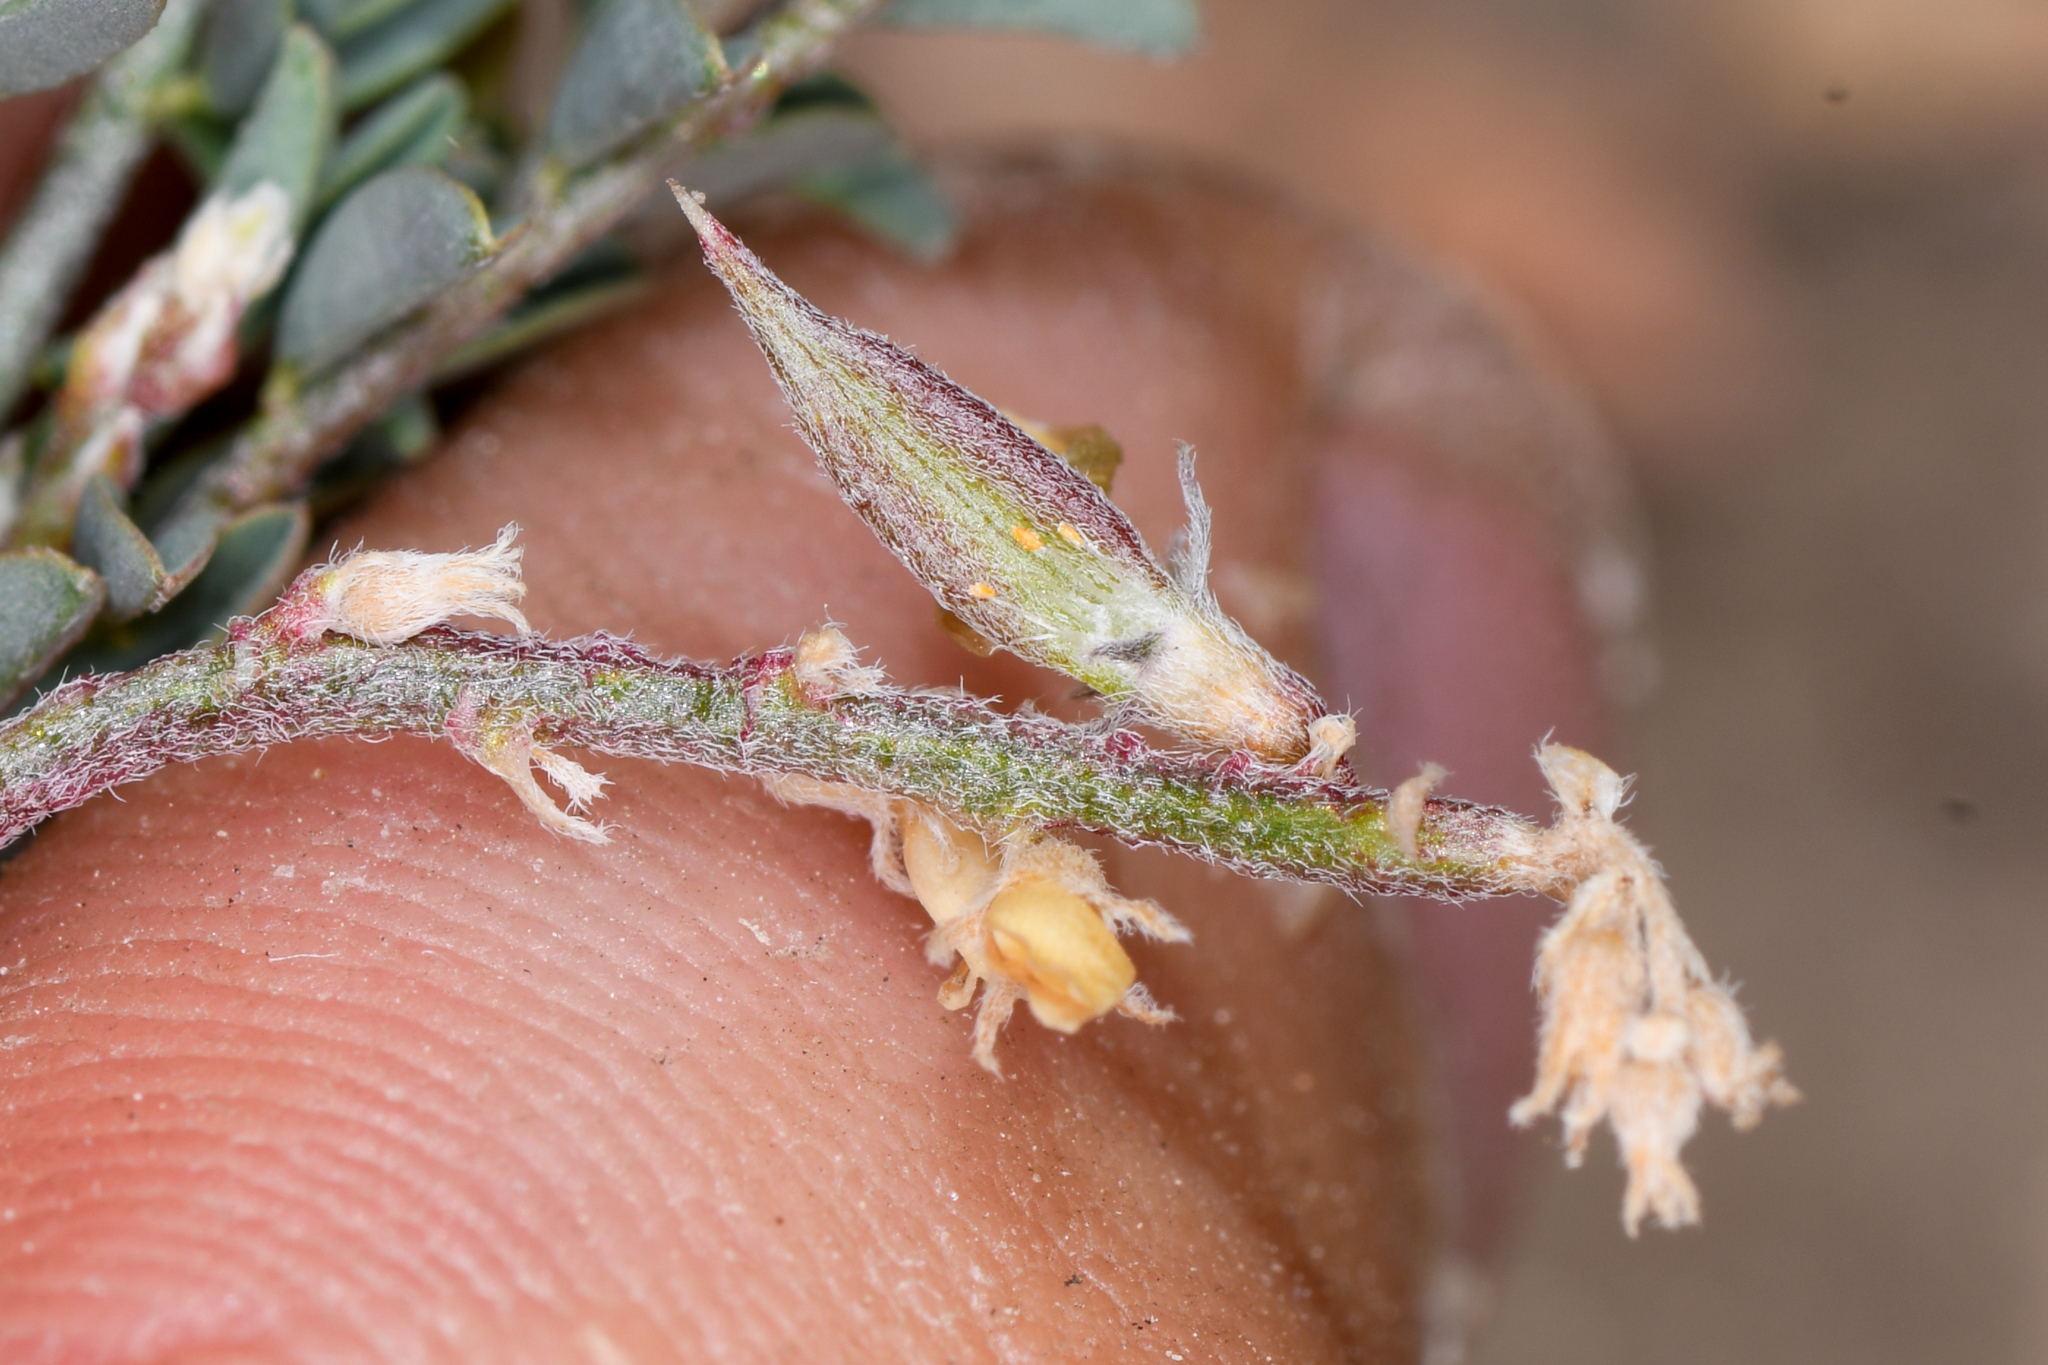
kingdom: Plantae
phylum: Tracheophyta
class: Magnoliopsida
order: Fabales
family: Fabaceae
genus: Astragalus
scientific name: Astragalus johannis-howellii
